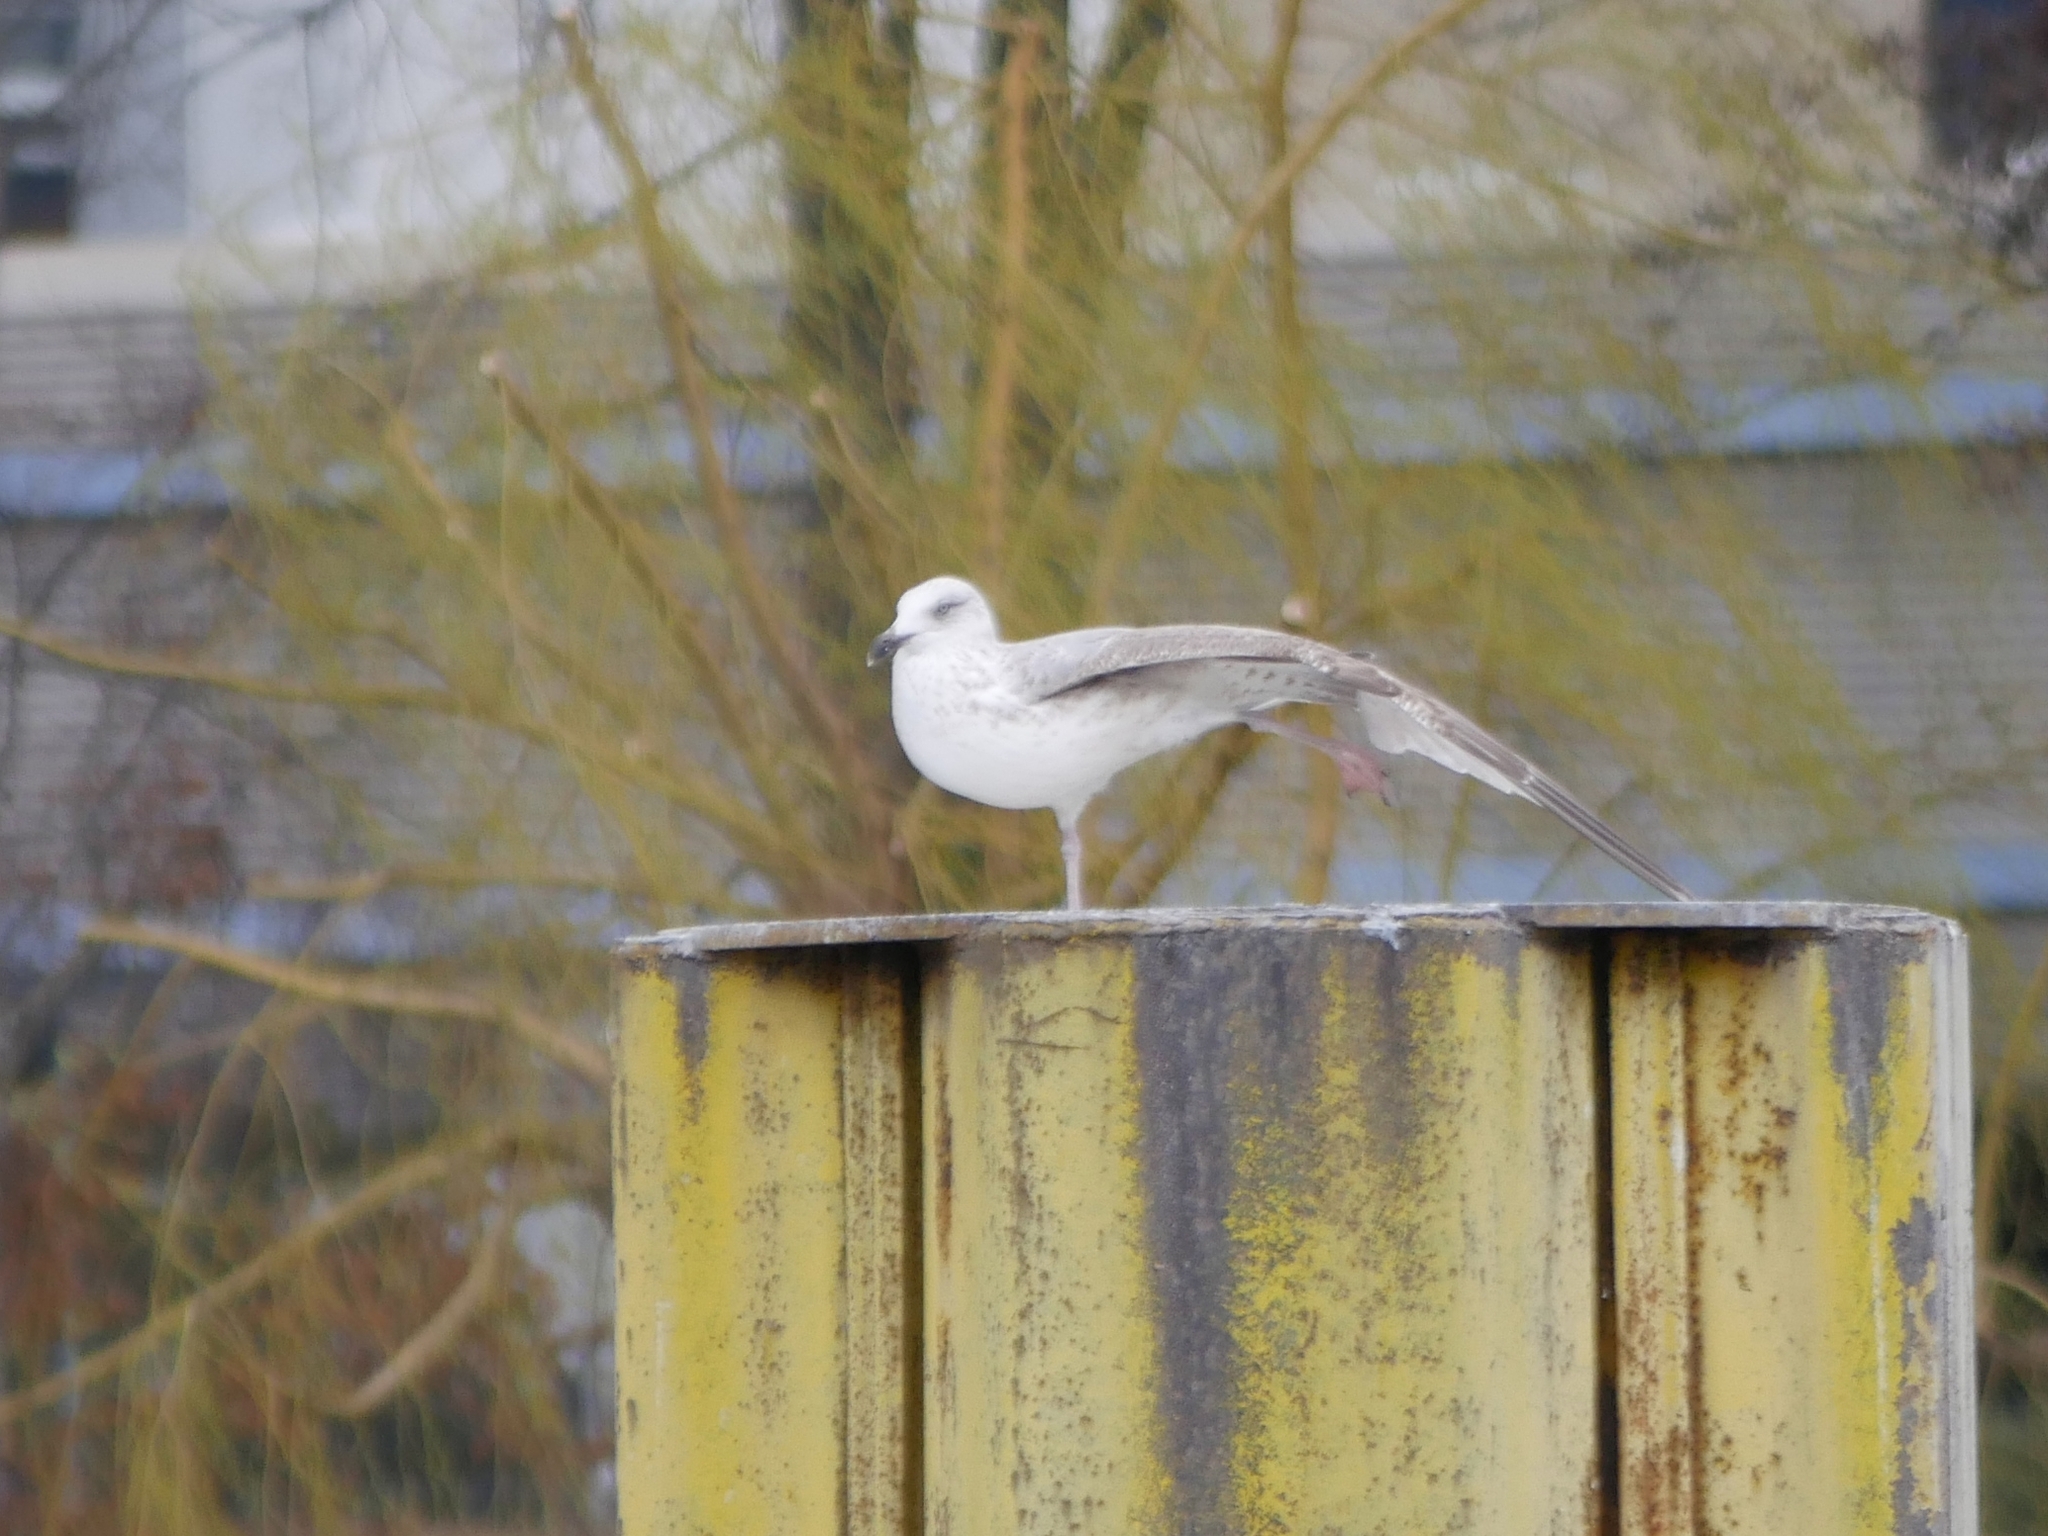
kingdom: Animalia
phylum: Chordata
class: Aves
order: Charadriiformes
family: Laridae
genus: Larus
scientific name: Larus argentatus
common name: Herring gull
